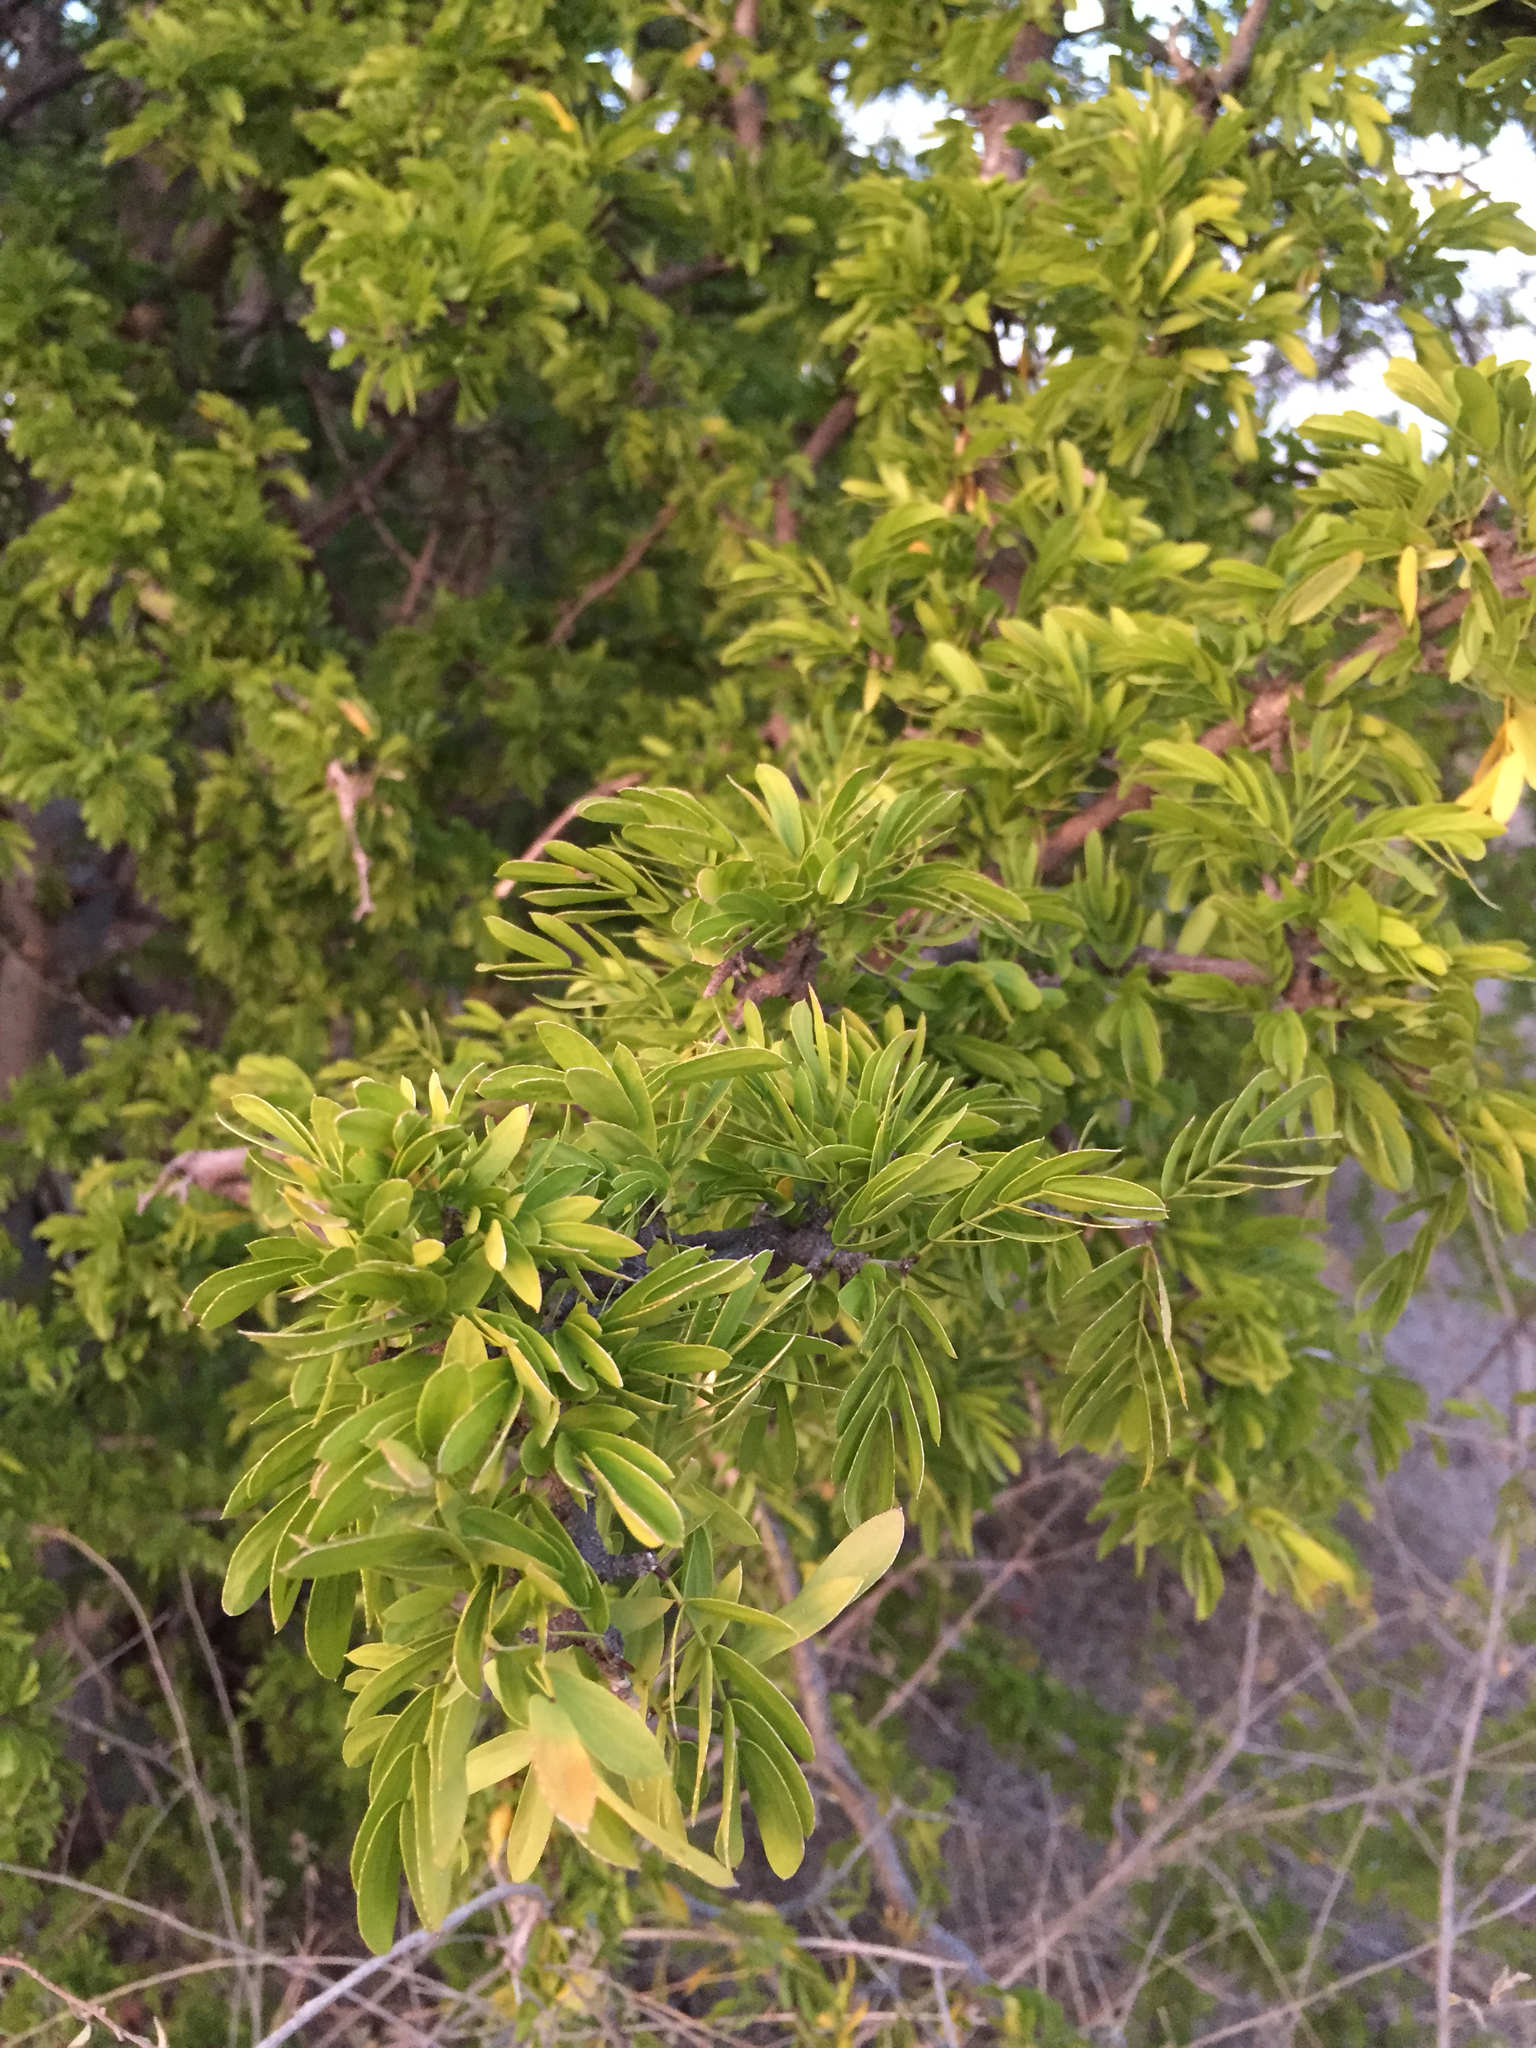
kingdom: Plantae
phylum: Tracheophyta
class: Magnoliopsida
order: Zygophyllales
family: Zygophyllaceae
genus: Guaiacum
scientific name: Guaiacum coulteri
